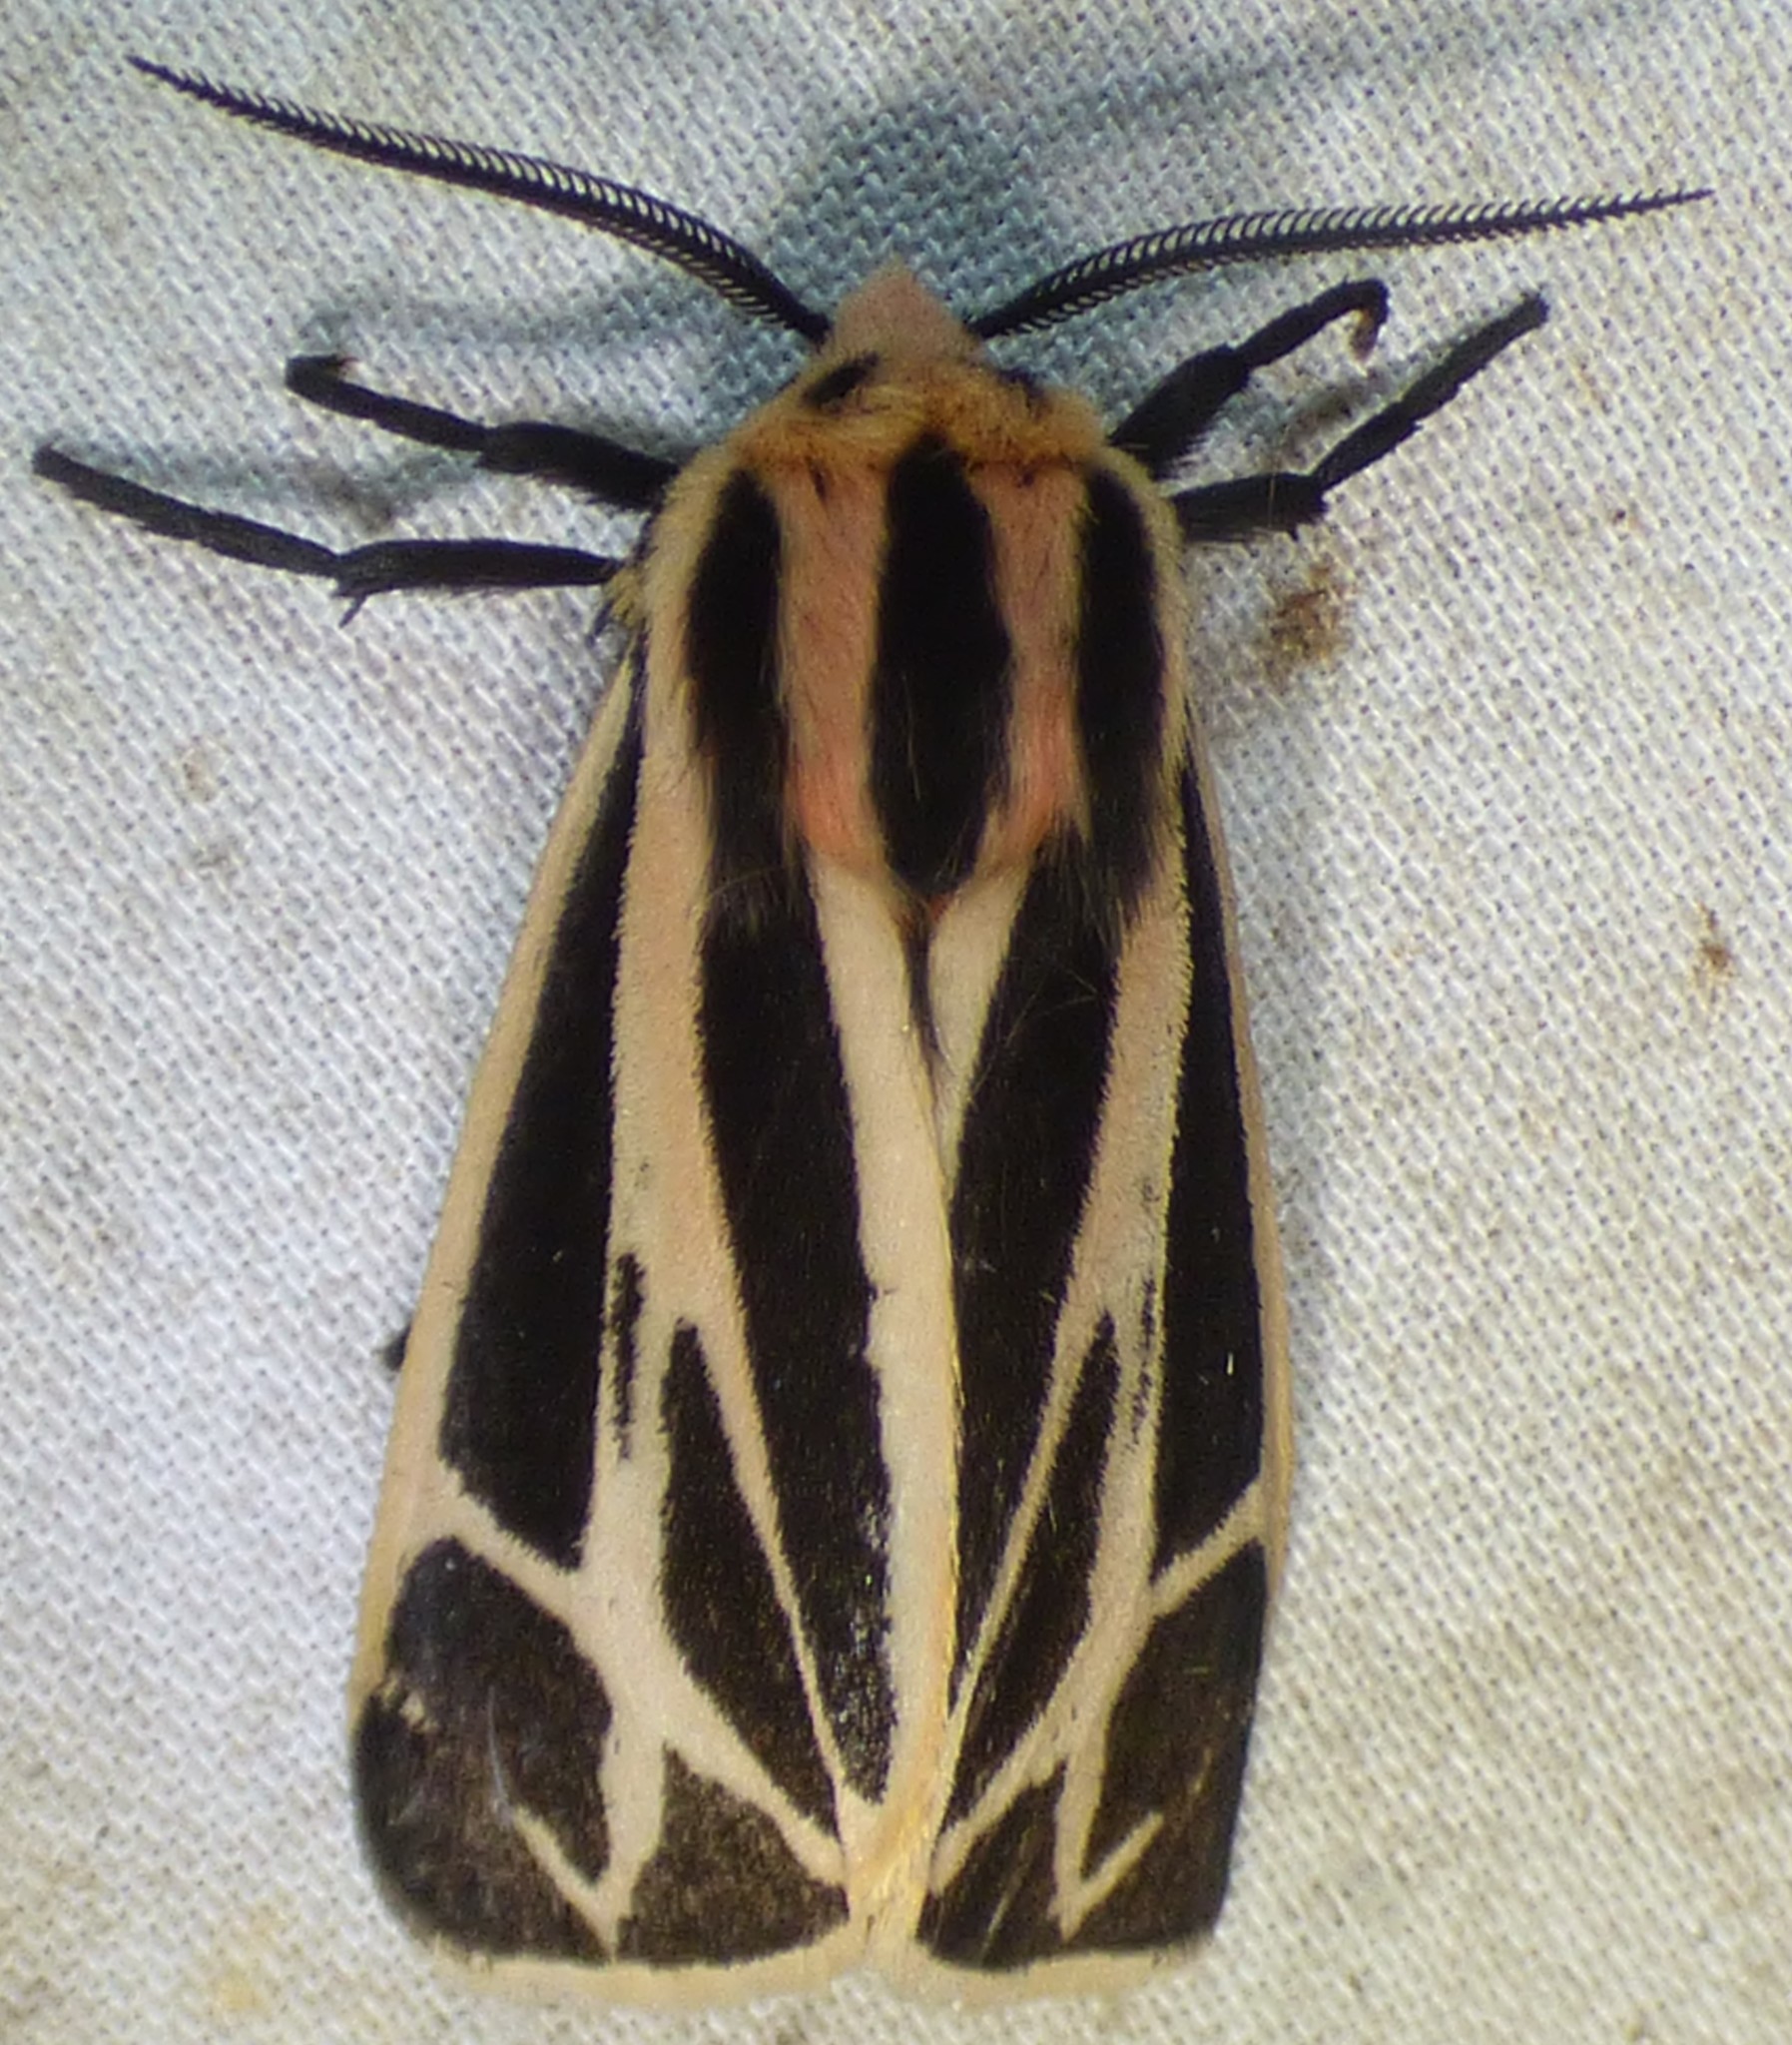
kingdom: Animalia
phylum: Arthropoda
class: Insecta
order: Lepidoptera
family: Erebidae
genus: Apantesis
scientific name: Apantesis nais
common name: Nais tiger moth
